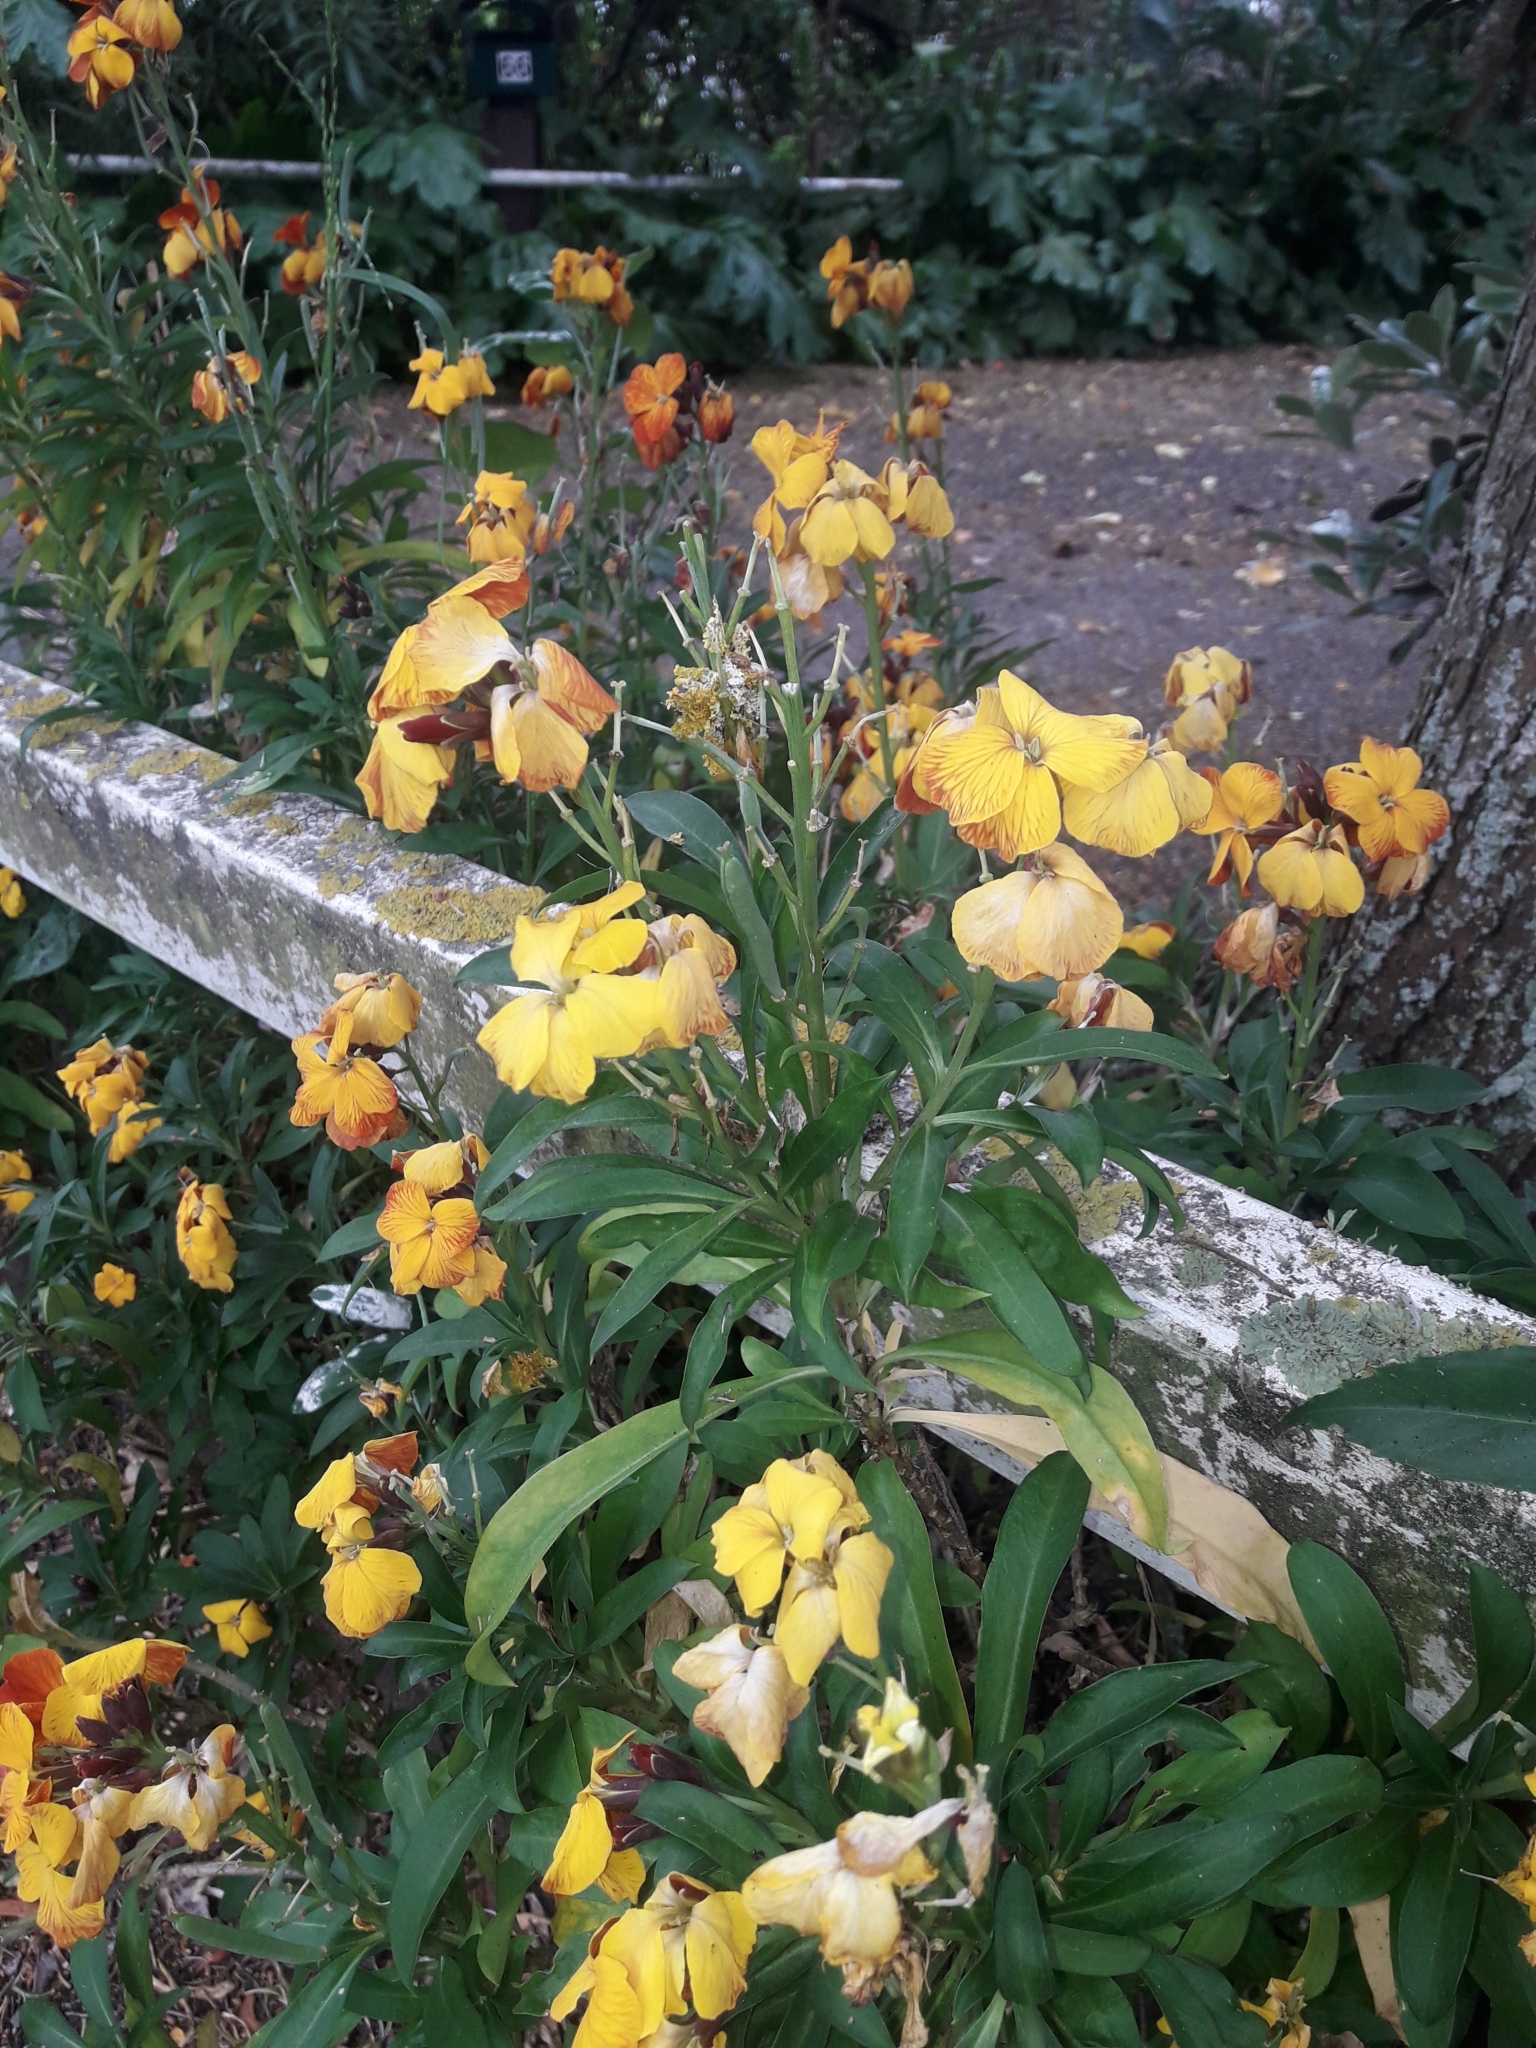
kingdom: Plantae
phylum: Tracheophyta
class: Magnoliopsida
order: Brassicales
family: Brassicaceae
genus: Erysimum
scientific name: Erysimum cheiri
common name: Wallflower
